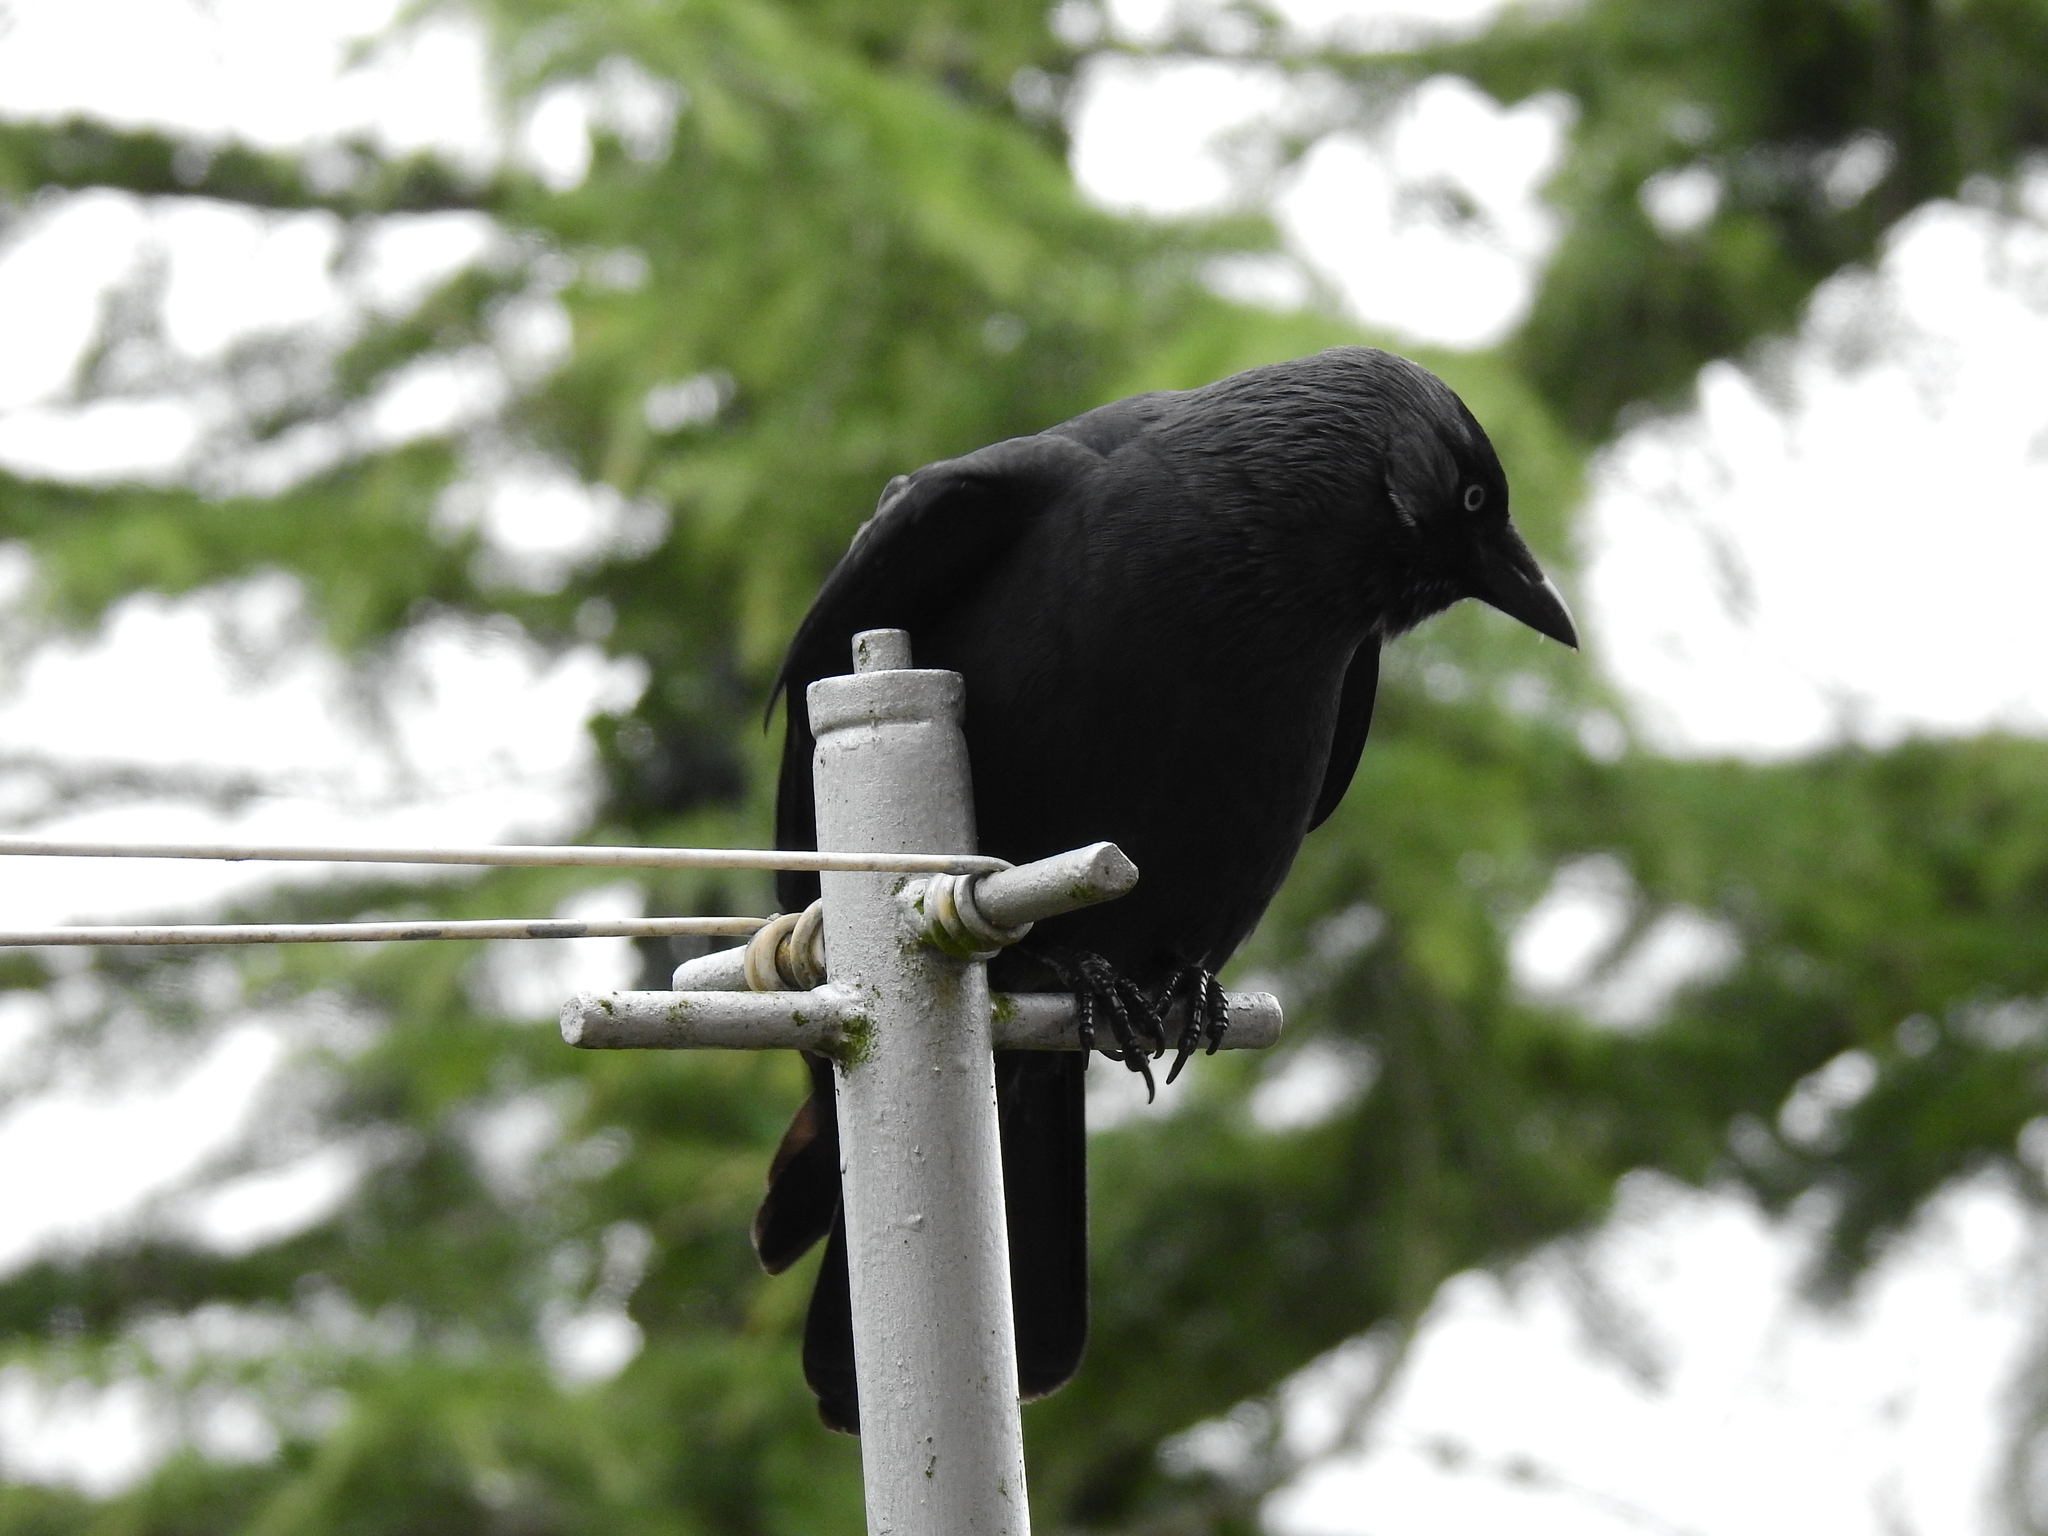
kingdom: Animalia
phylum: Chordata
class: Aves
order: Passeriformes
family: Corvidae
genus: Coloeus
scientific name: Coloeus monedula
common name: Western jackdaw
